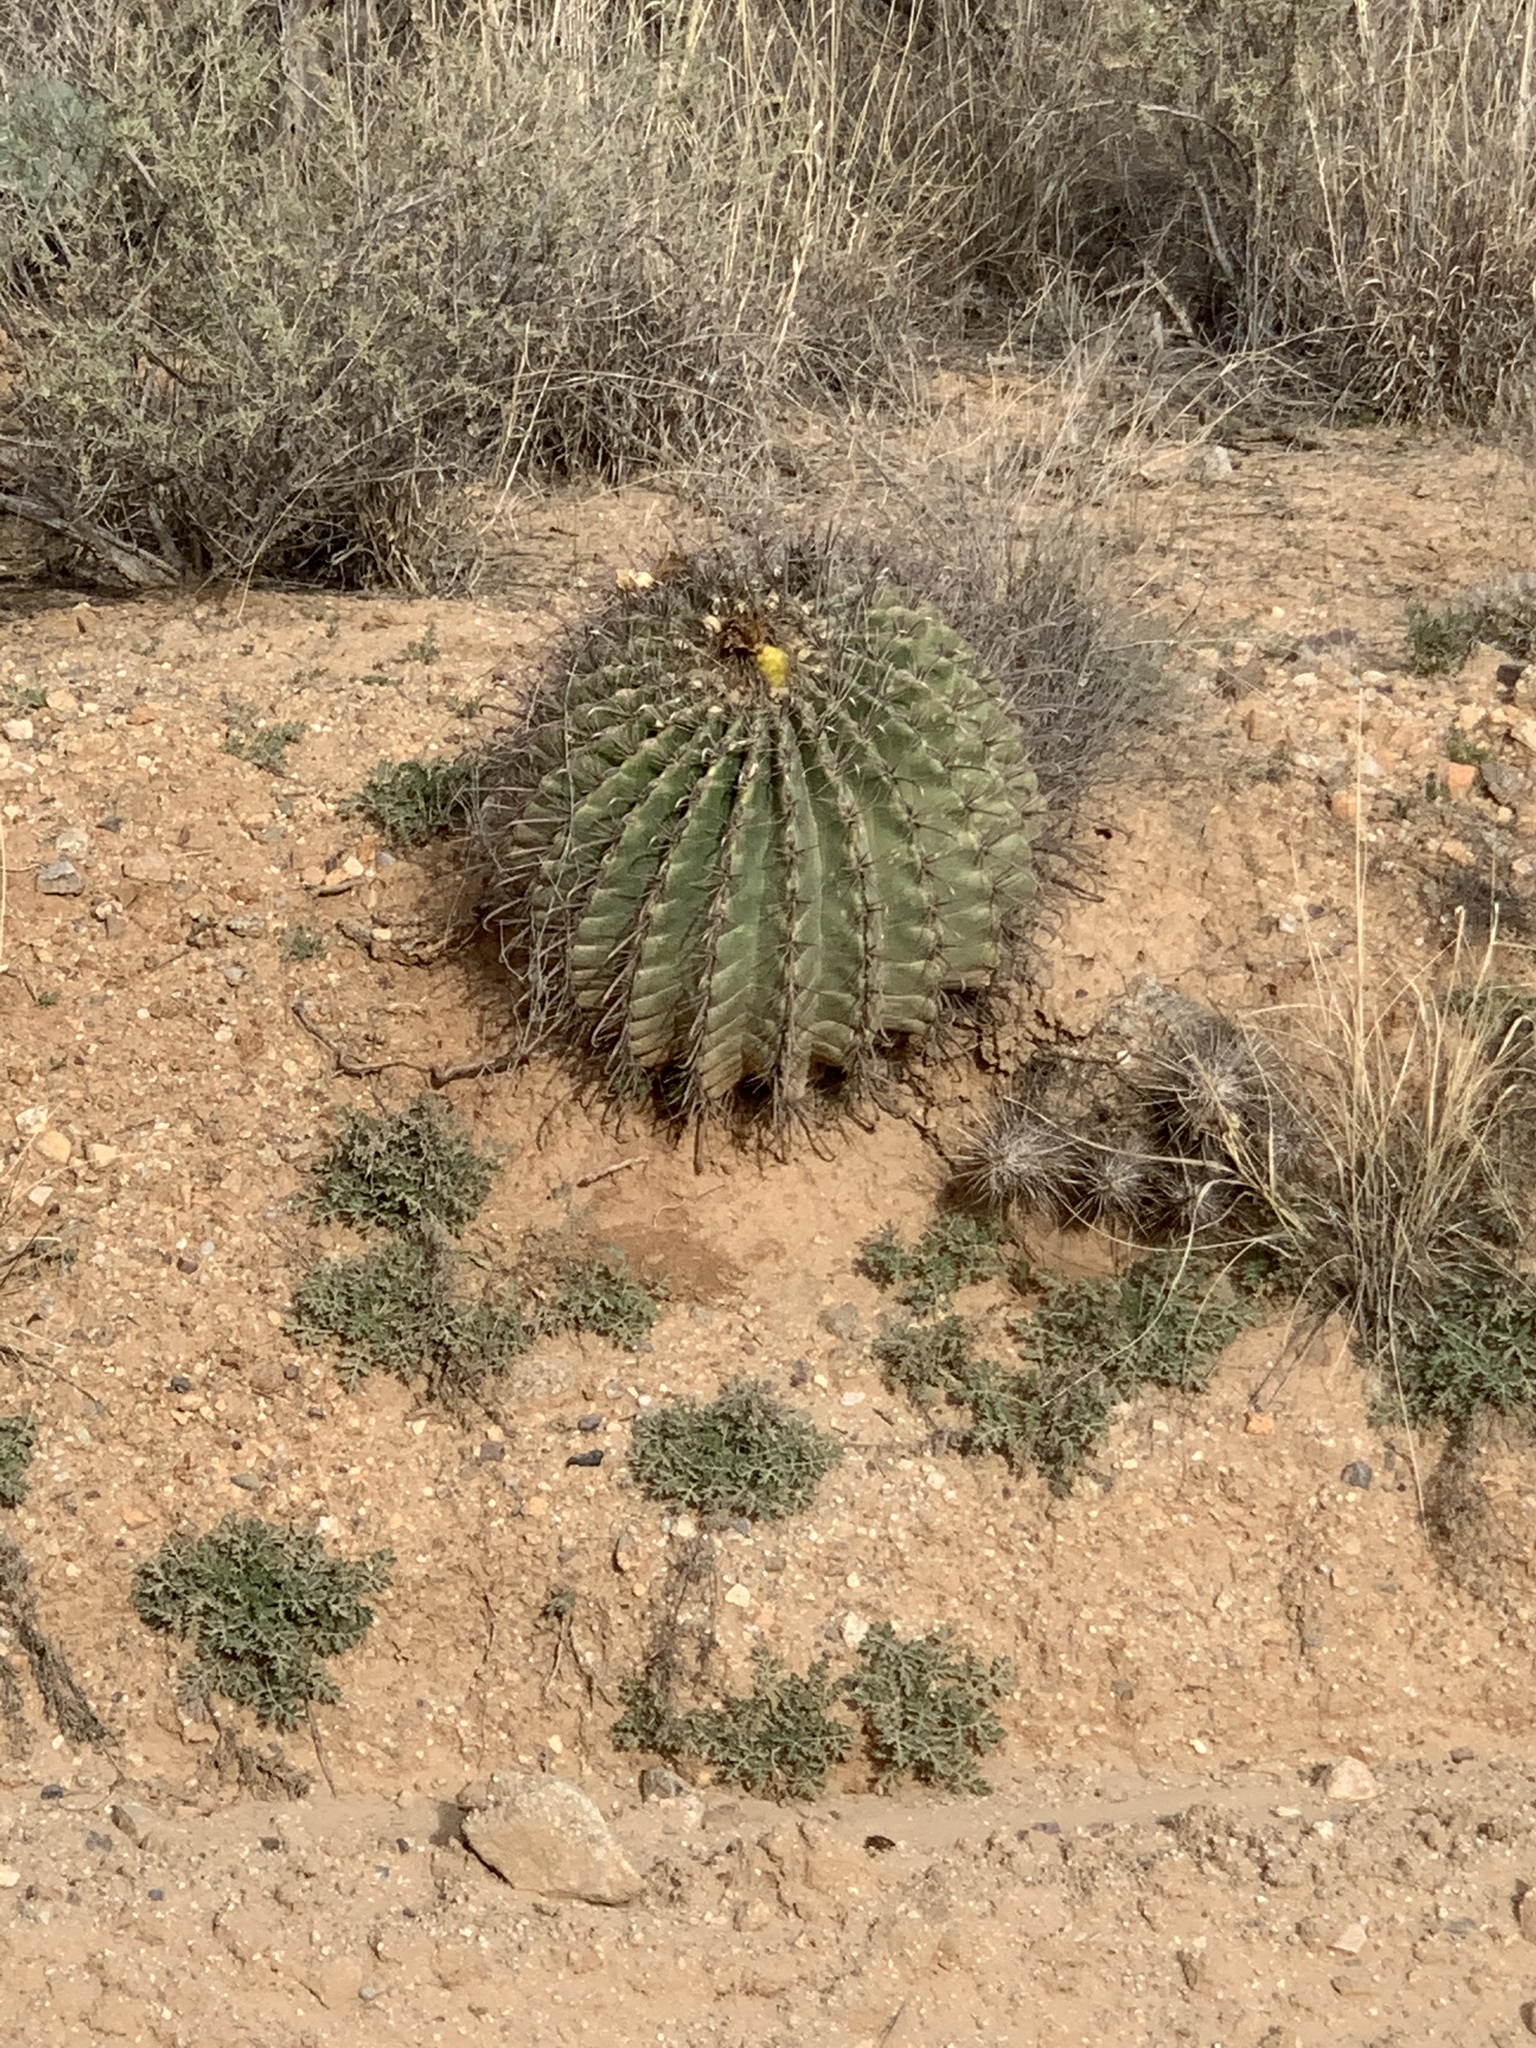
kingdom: Plantae
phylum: Tracheophyta
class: Magnoliopsida
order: Caryophyllales
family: Cactaceae
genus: Ferocactus
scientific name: Ferocactus wislizeni
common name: Candy barrel cactus
